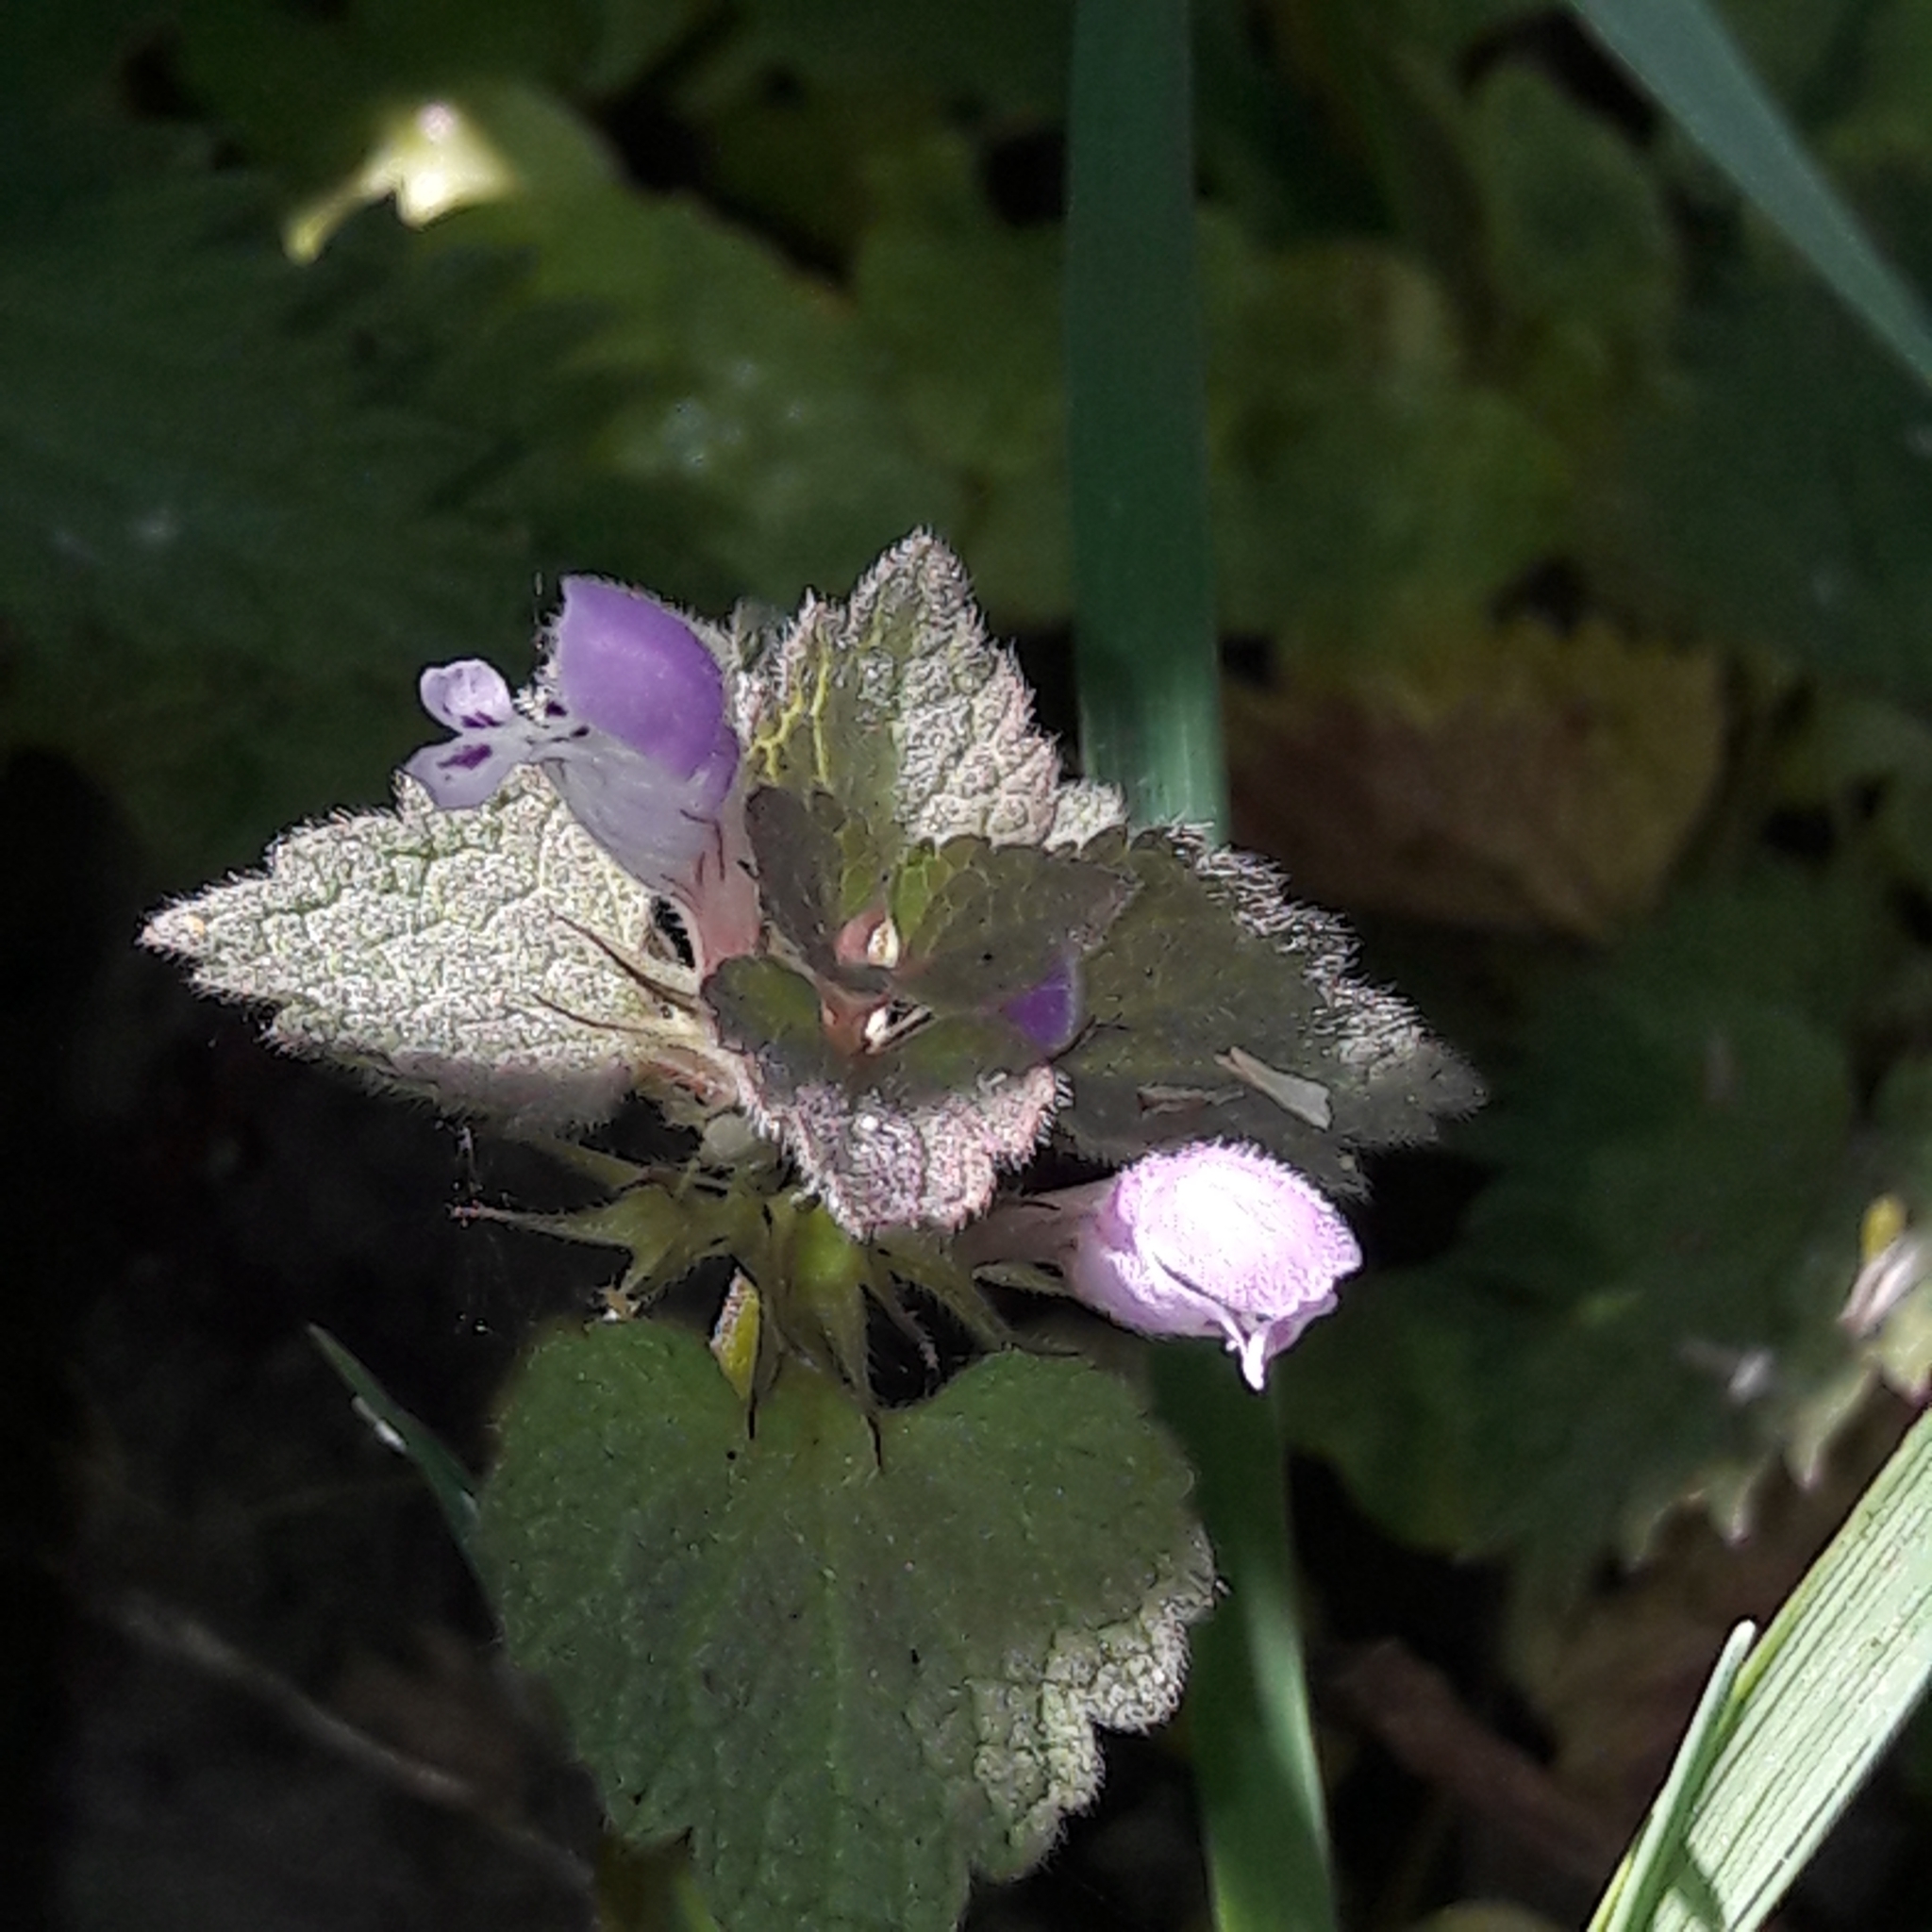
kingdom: Plantae
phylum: Tracheophyta
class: Magnoliopsida
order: Lamiales
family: Lamiaceae
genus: Lamium
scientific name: Lamium purpureum
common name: Red dead-nettle
